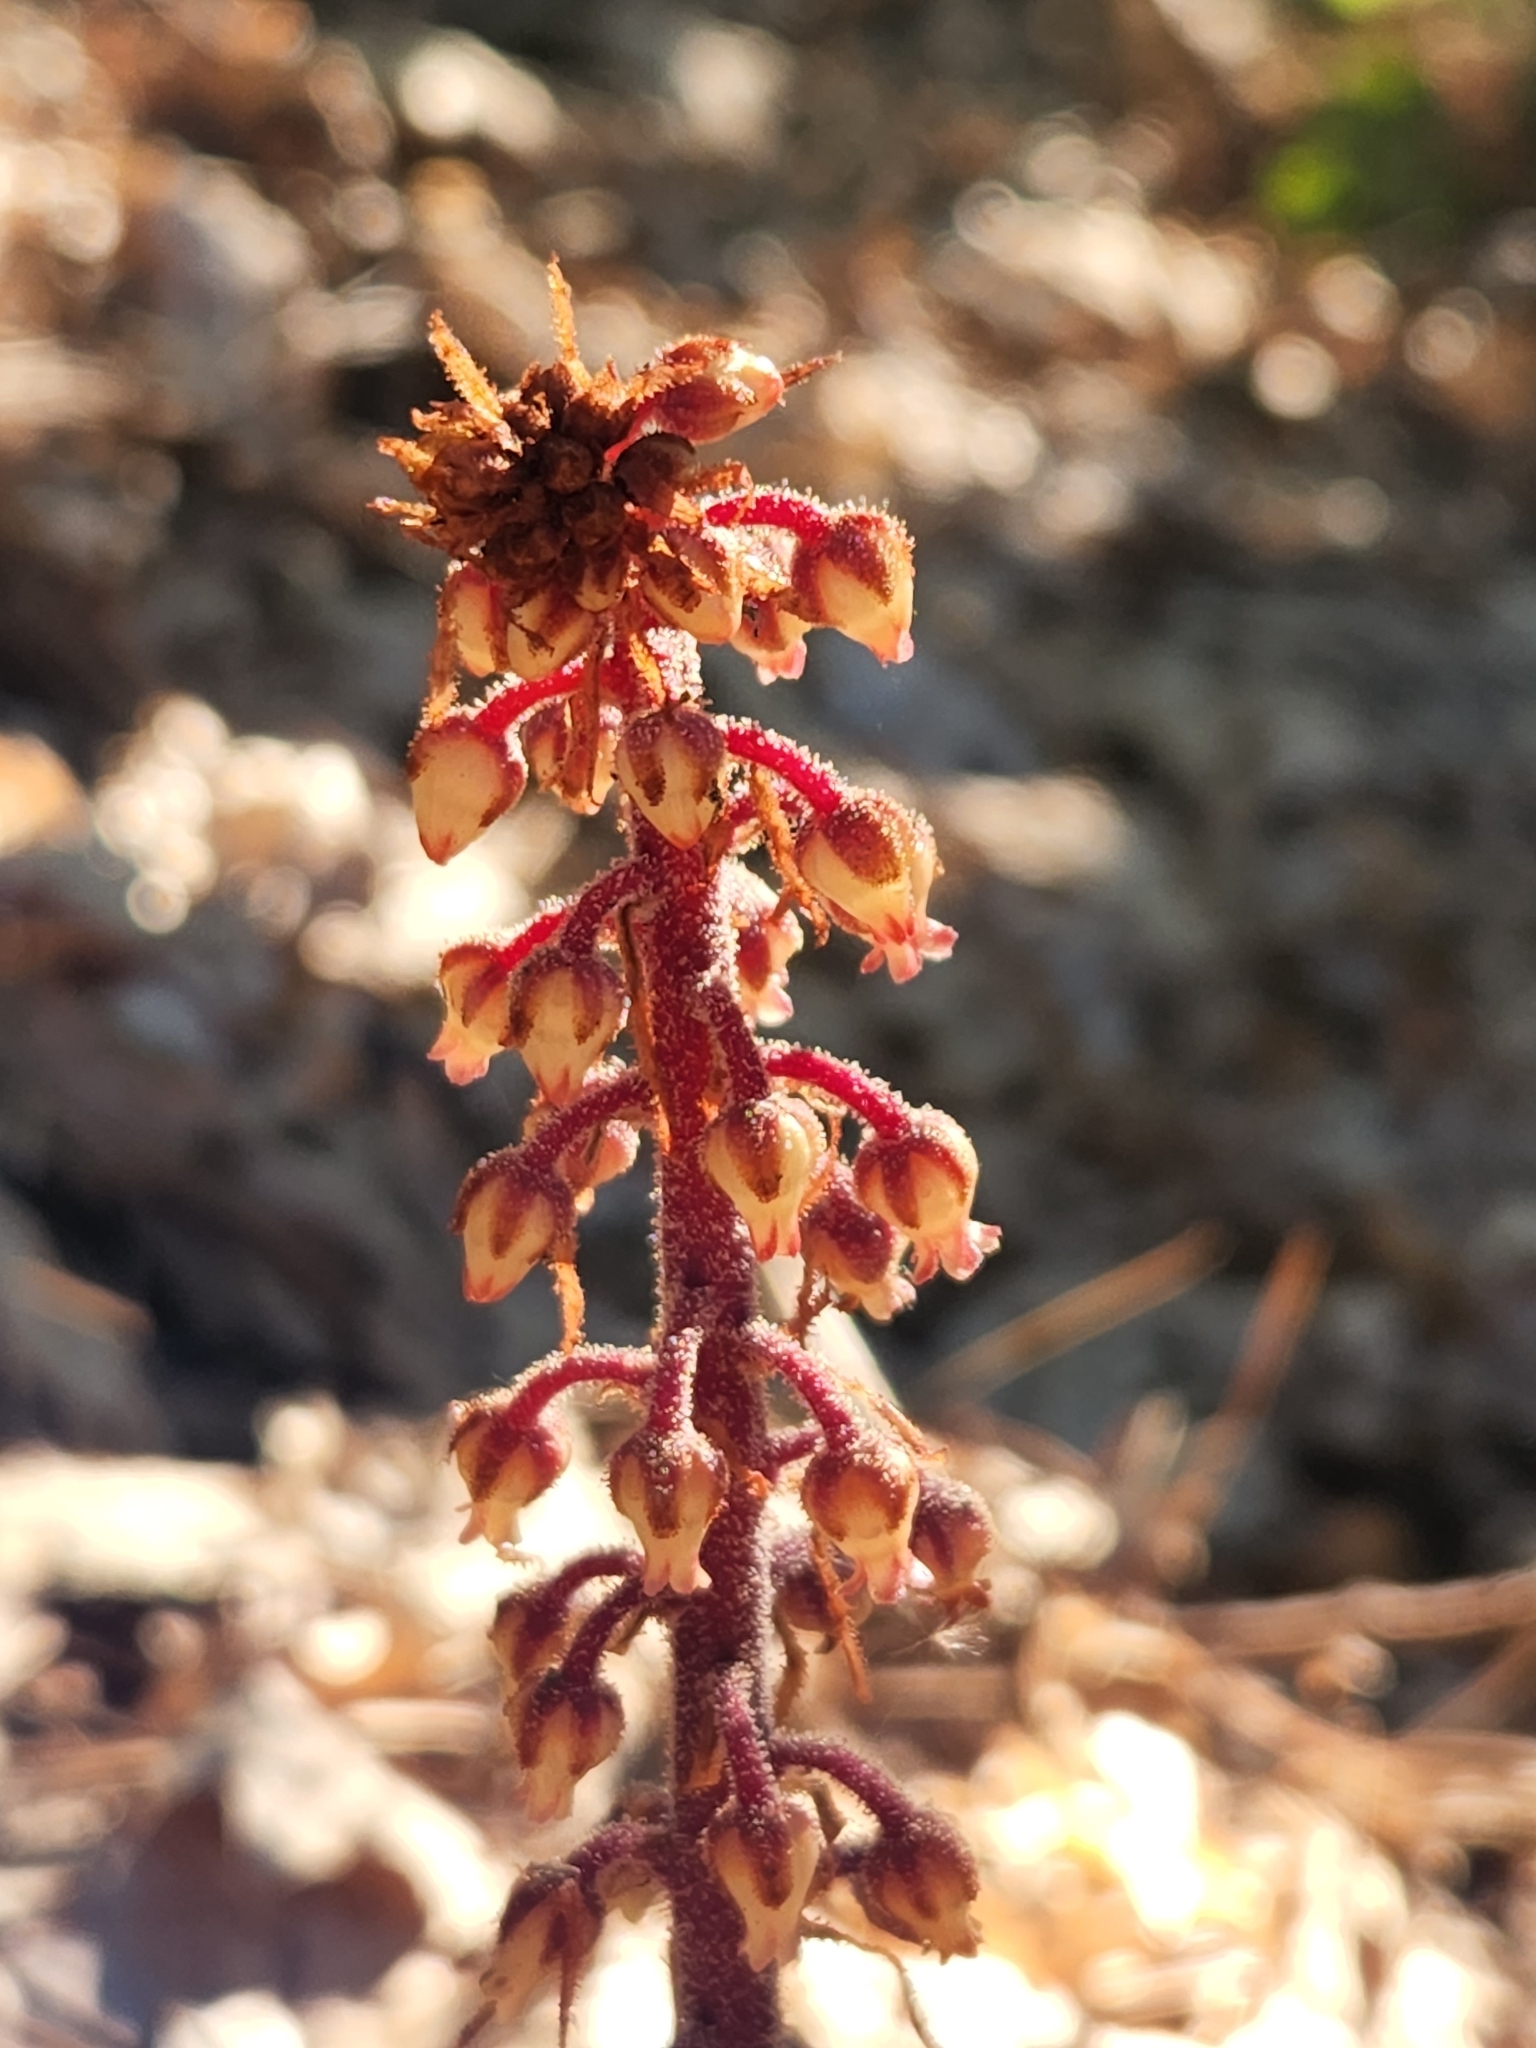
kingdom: Plantae
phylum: Tracheophyta
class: Magnoliopsida
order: Ericales
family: Ericaceae
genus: Pterospora
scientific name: Pterospora andromedea
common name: Giant bird's-nest
